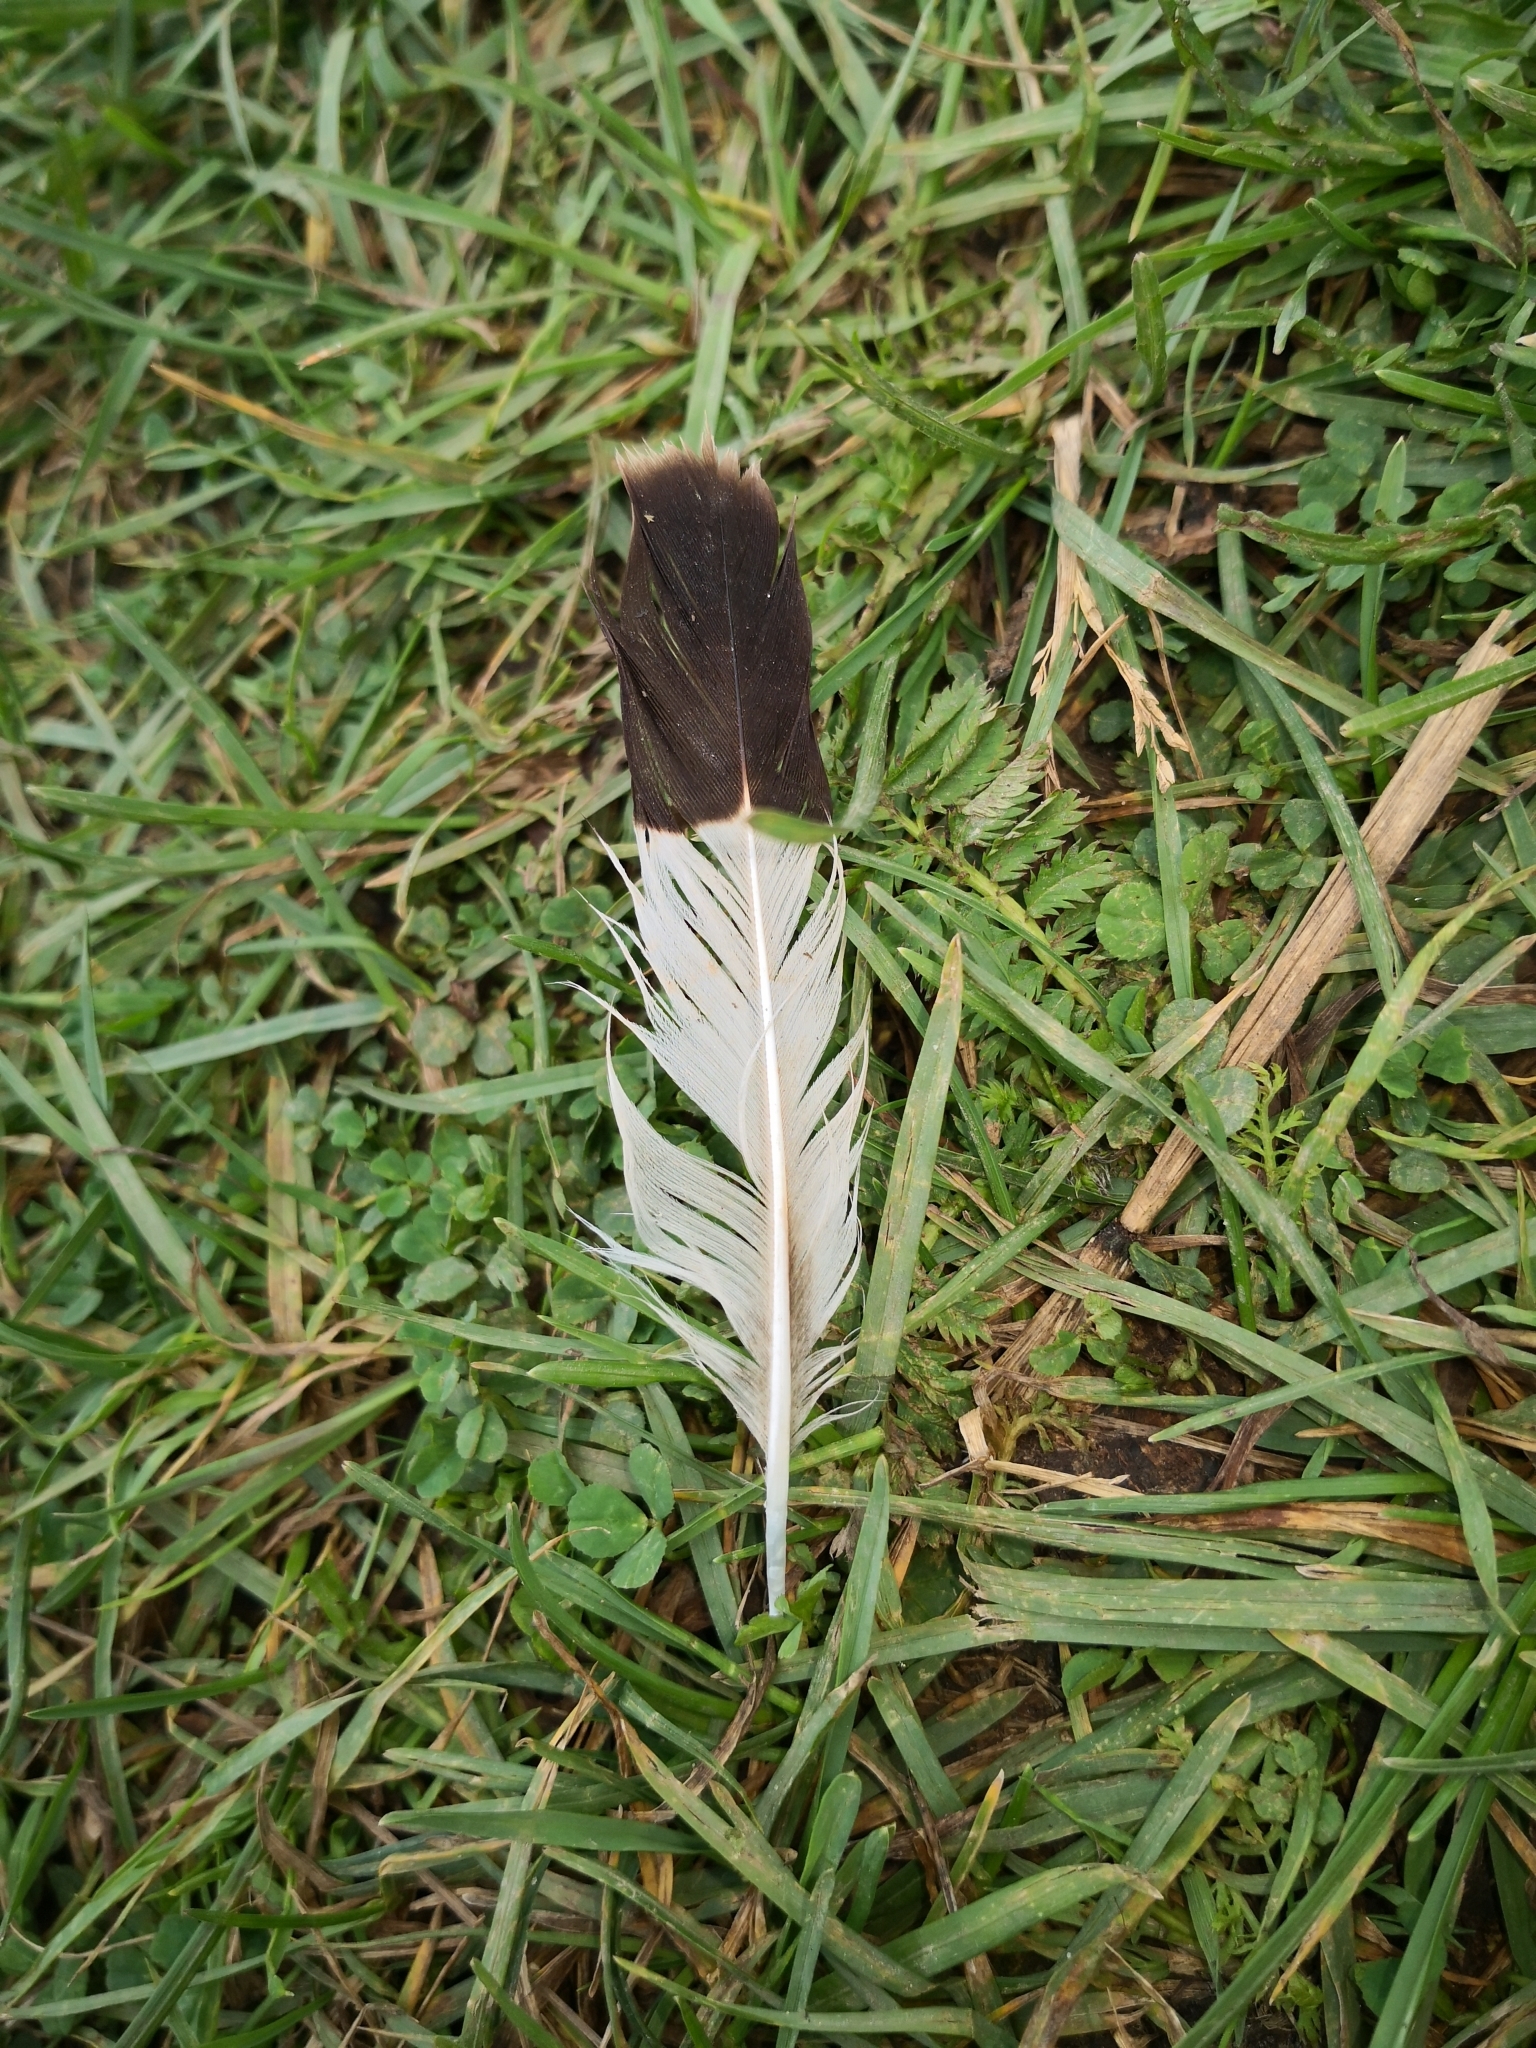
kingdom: Animalia
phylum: Chordata
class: Aves
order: Charadriiformes
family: Charadriidae
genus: Vanellus
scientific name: Vanellus vanellus
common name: Northern lapwing
